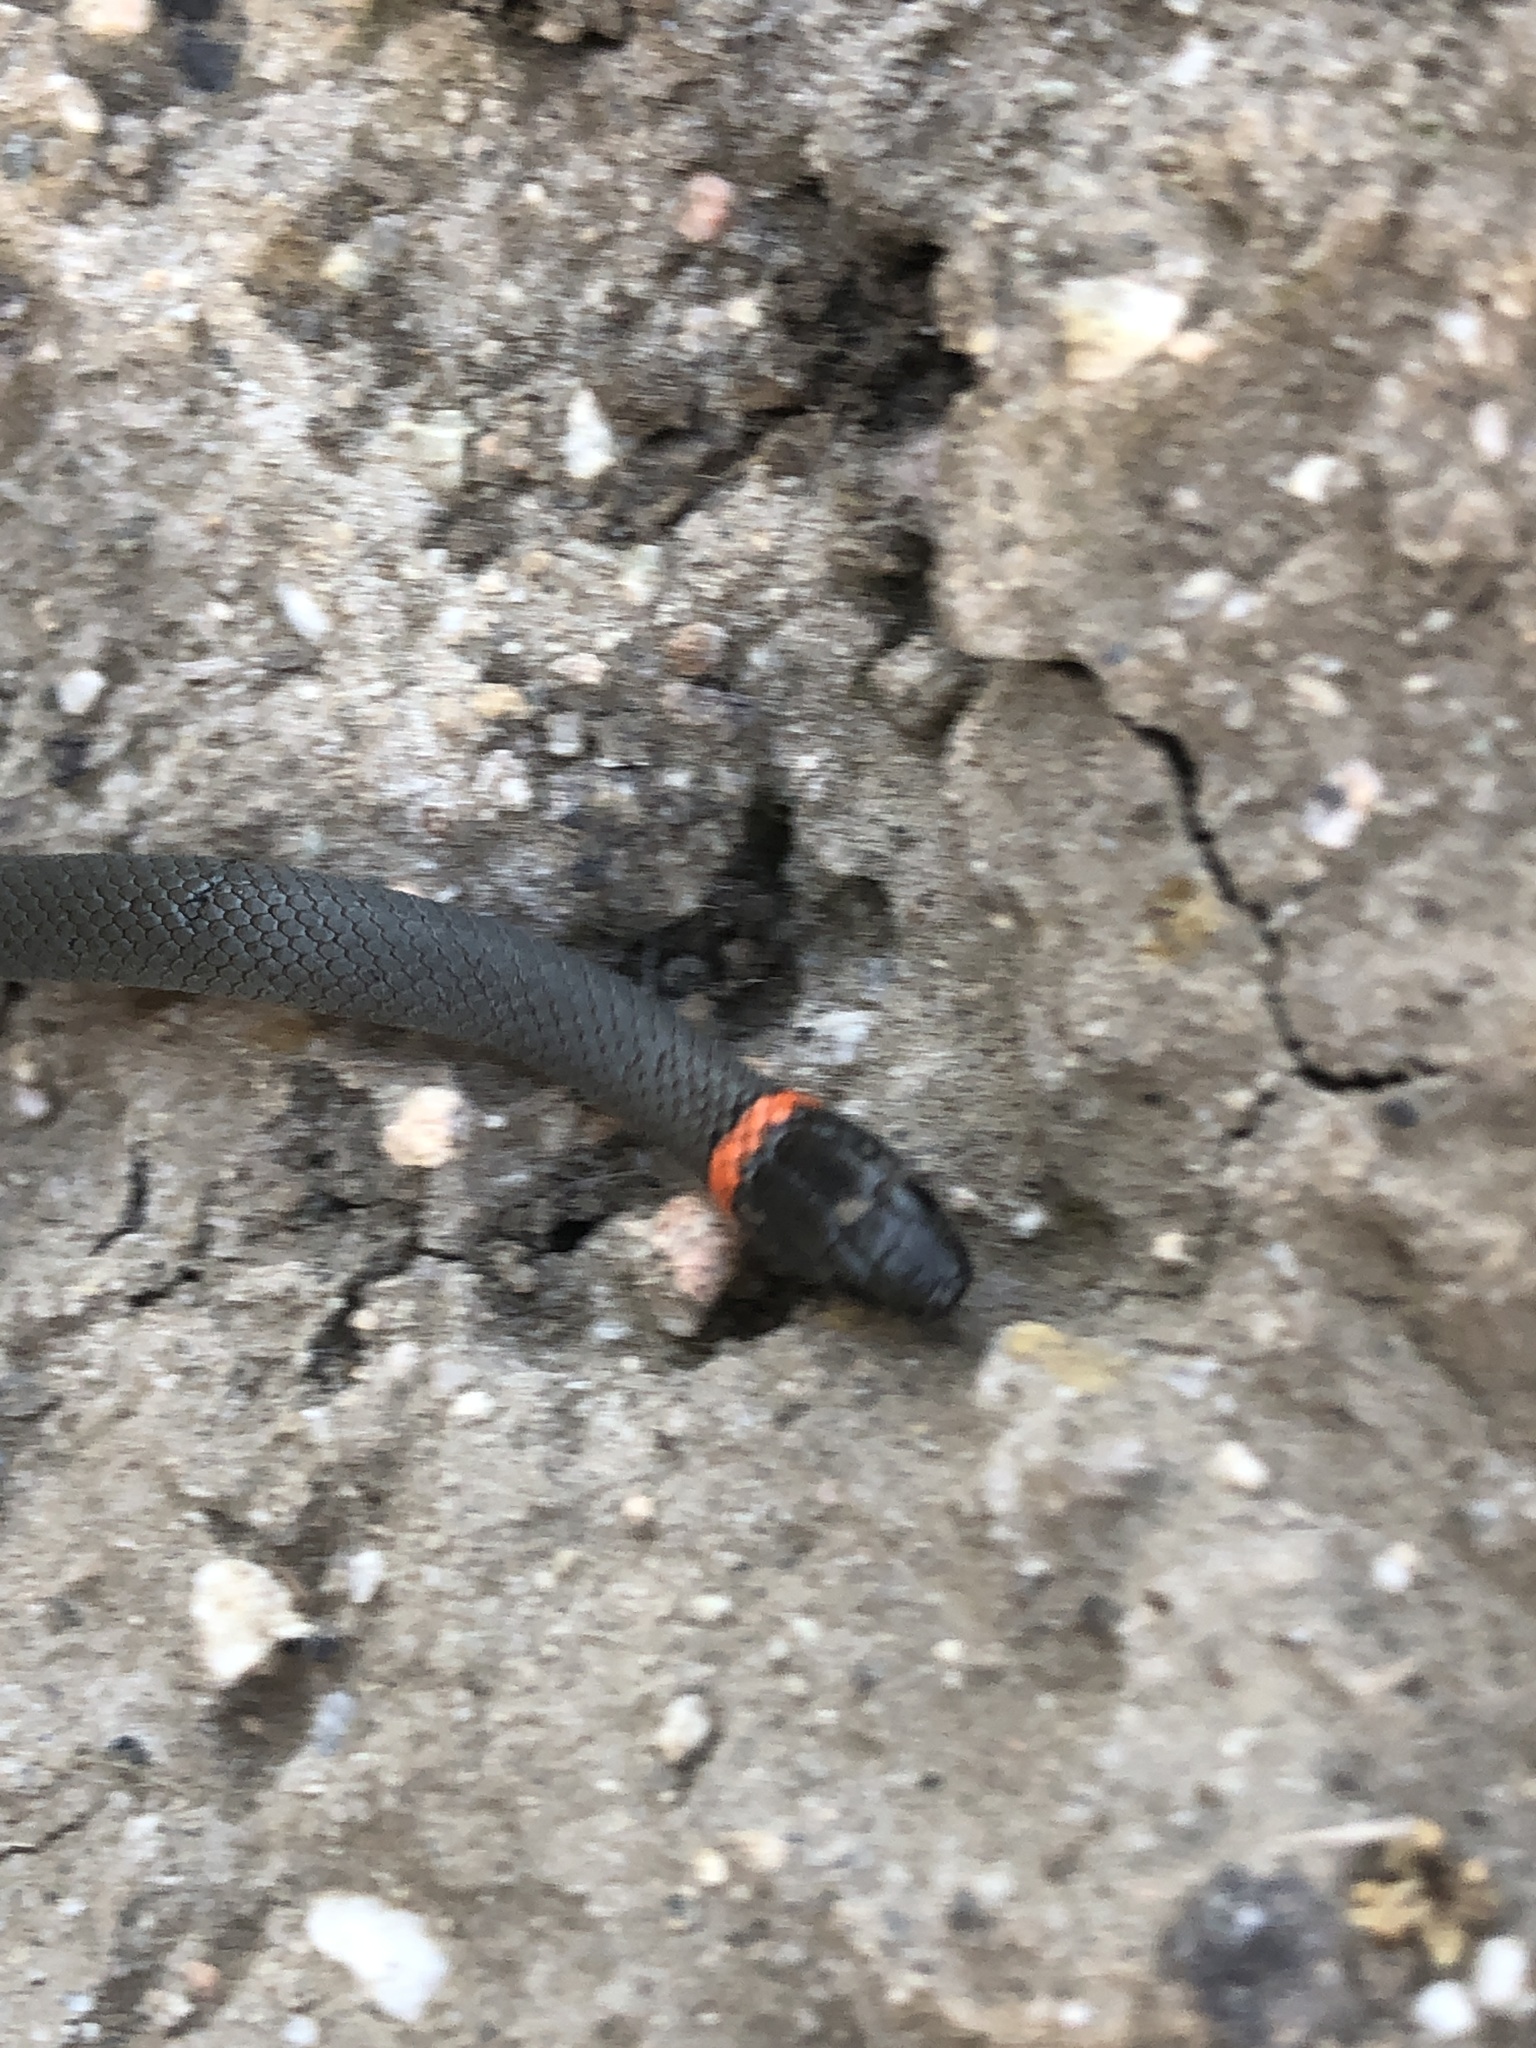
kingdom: Animalia
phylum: Chordata
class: Squamata
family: Colubridae
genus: Diadophis
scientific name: Diadophis punctatus
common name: Ringneck snake
